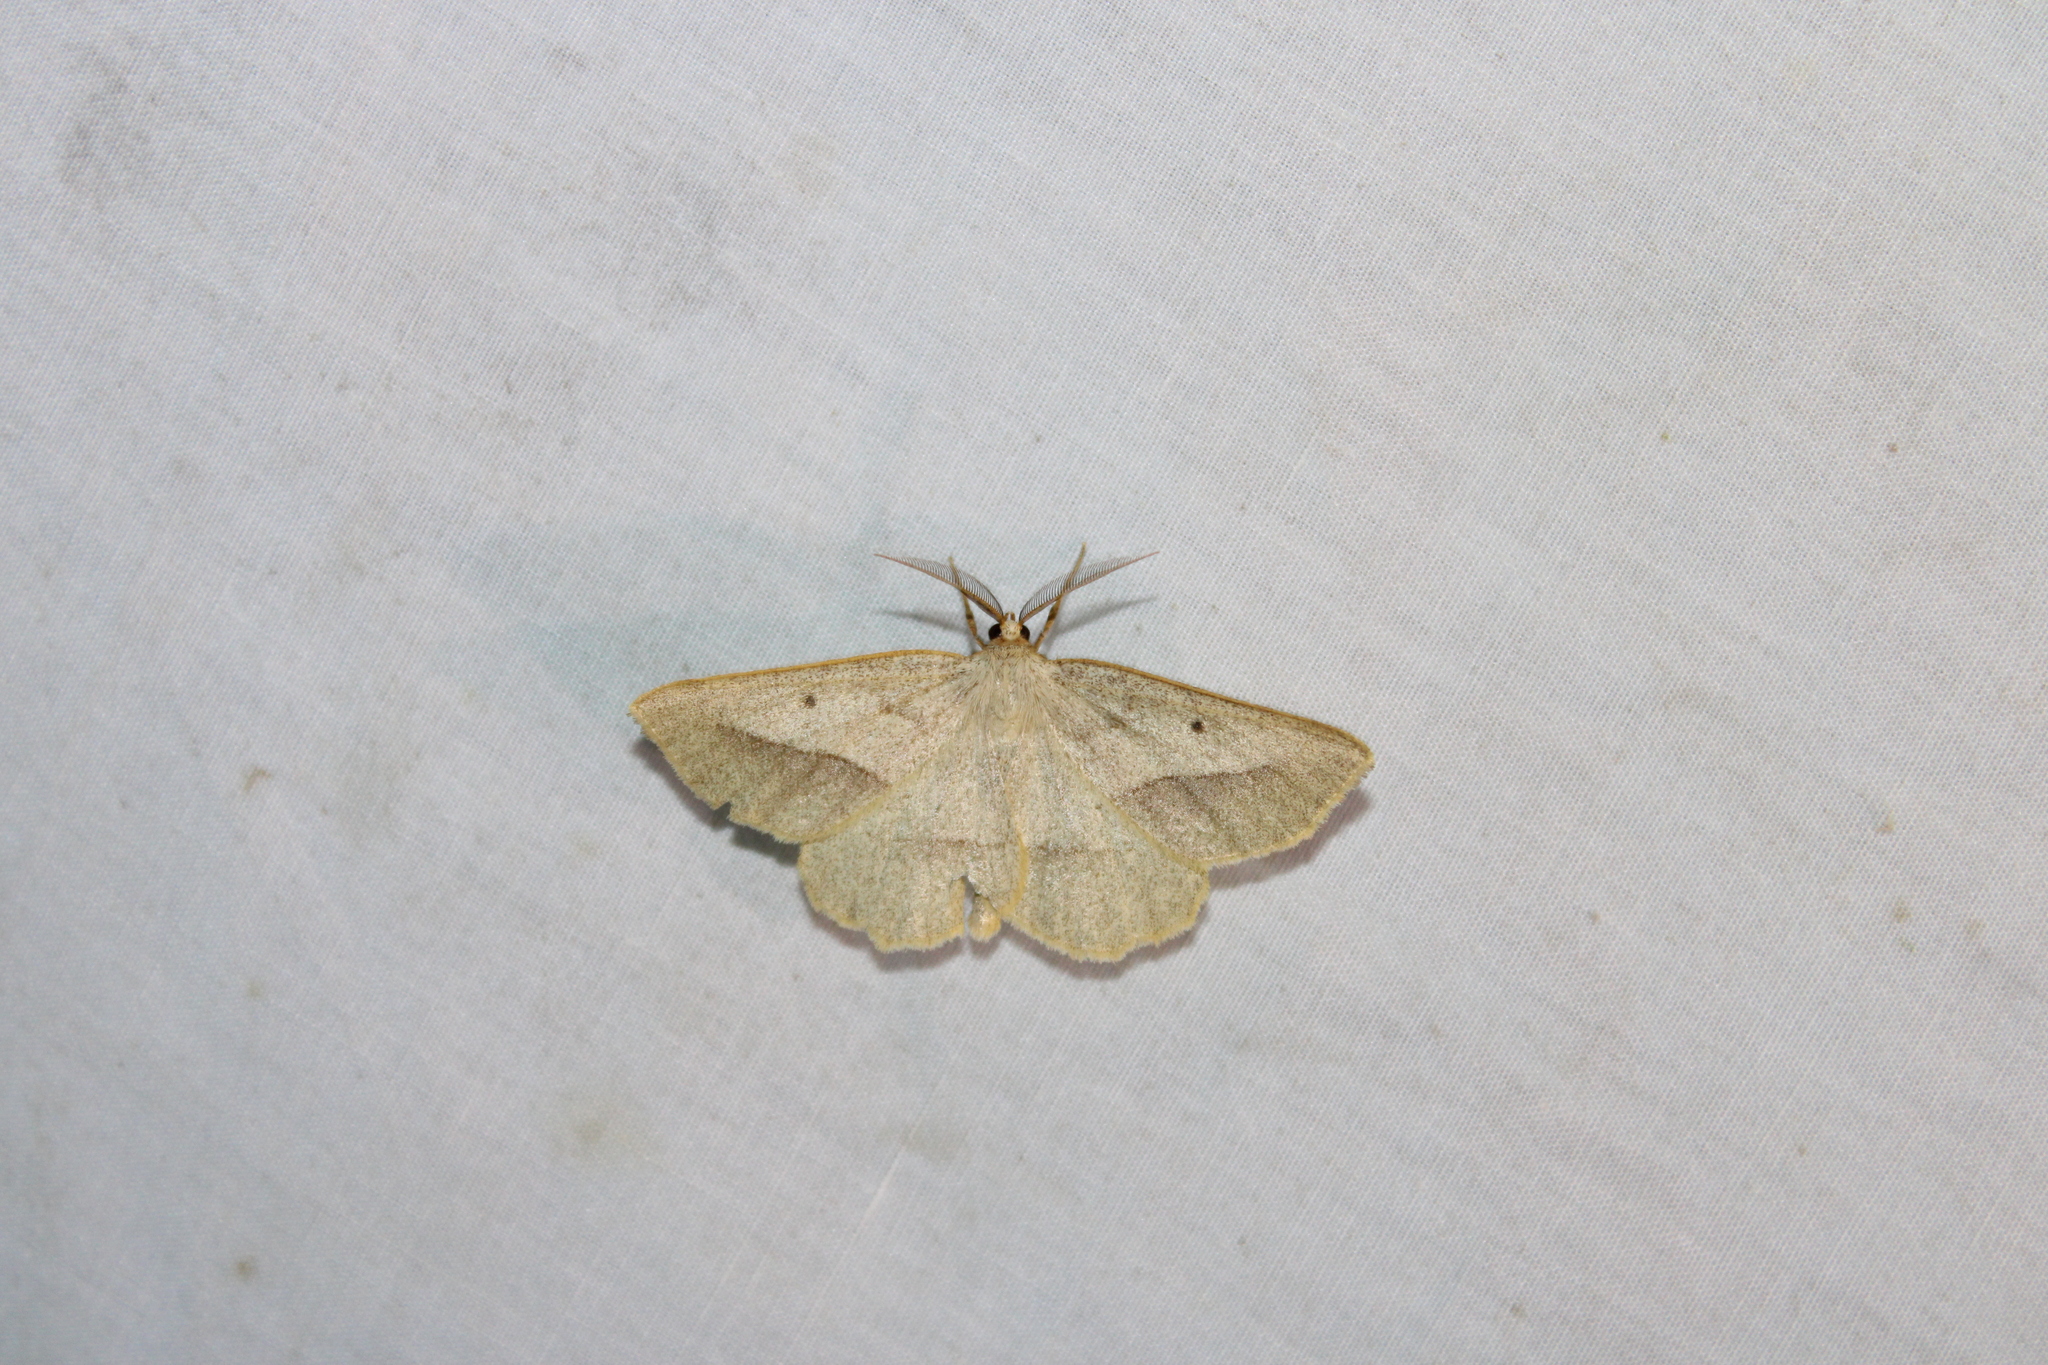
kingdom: Animalia
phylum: Arthropoda
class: Insecta
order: Lepidoptera
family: Geometridae
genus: Euchlaena
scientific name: Euchlaena irraria
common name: Least-marked euchlaena
